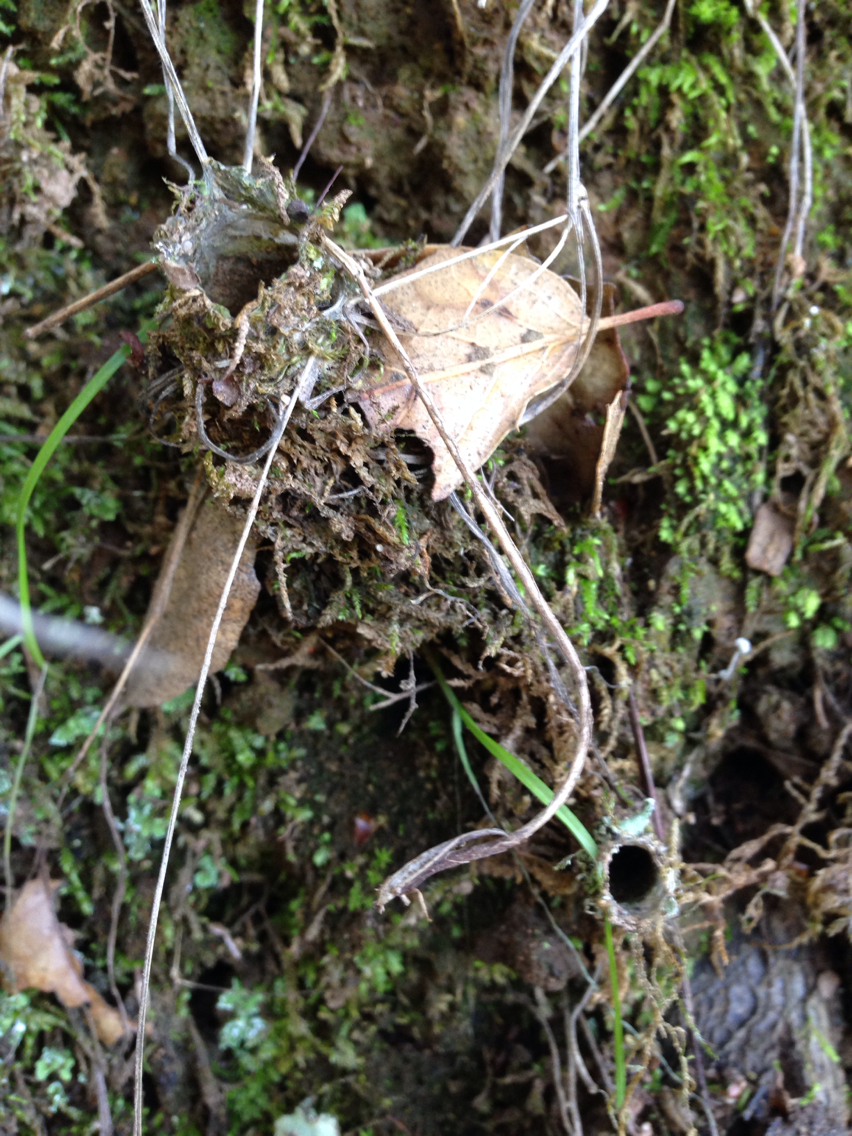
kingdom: Animalia
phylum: Arthropoda
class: Arachnida
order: Araneae
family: Antrodiaetidae
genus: Atypoides
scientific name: Atypoides riversi
